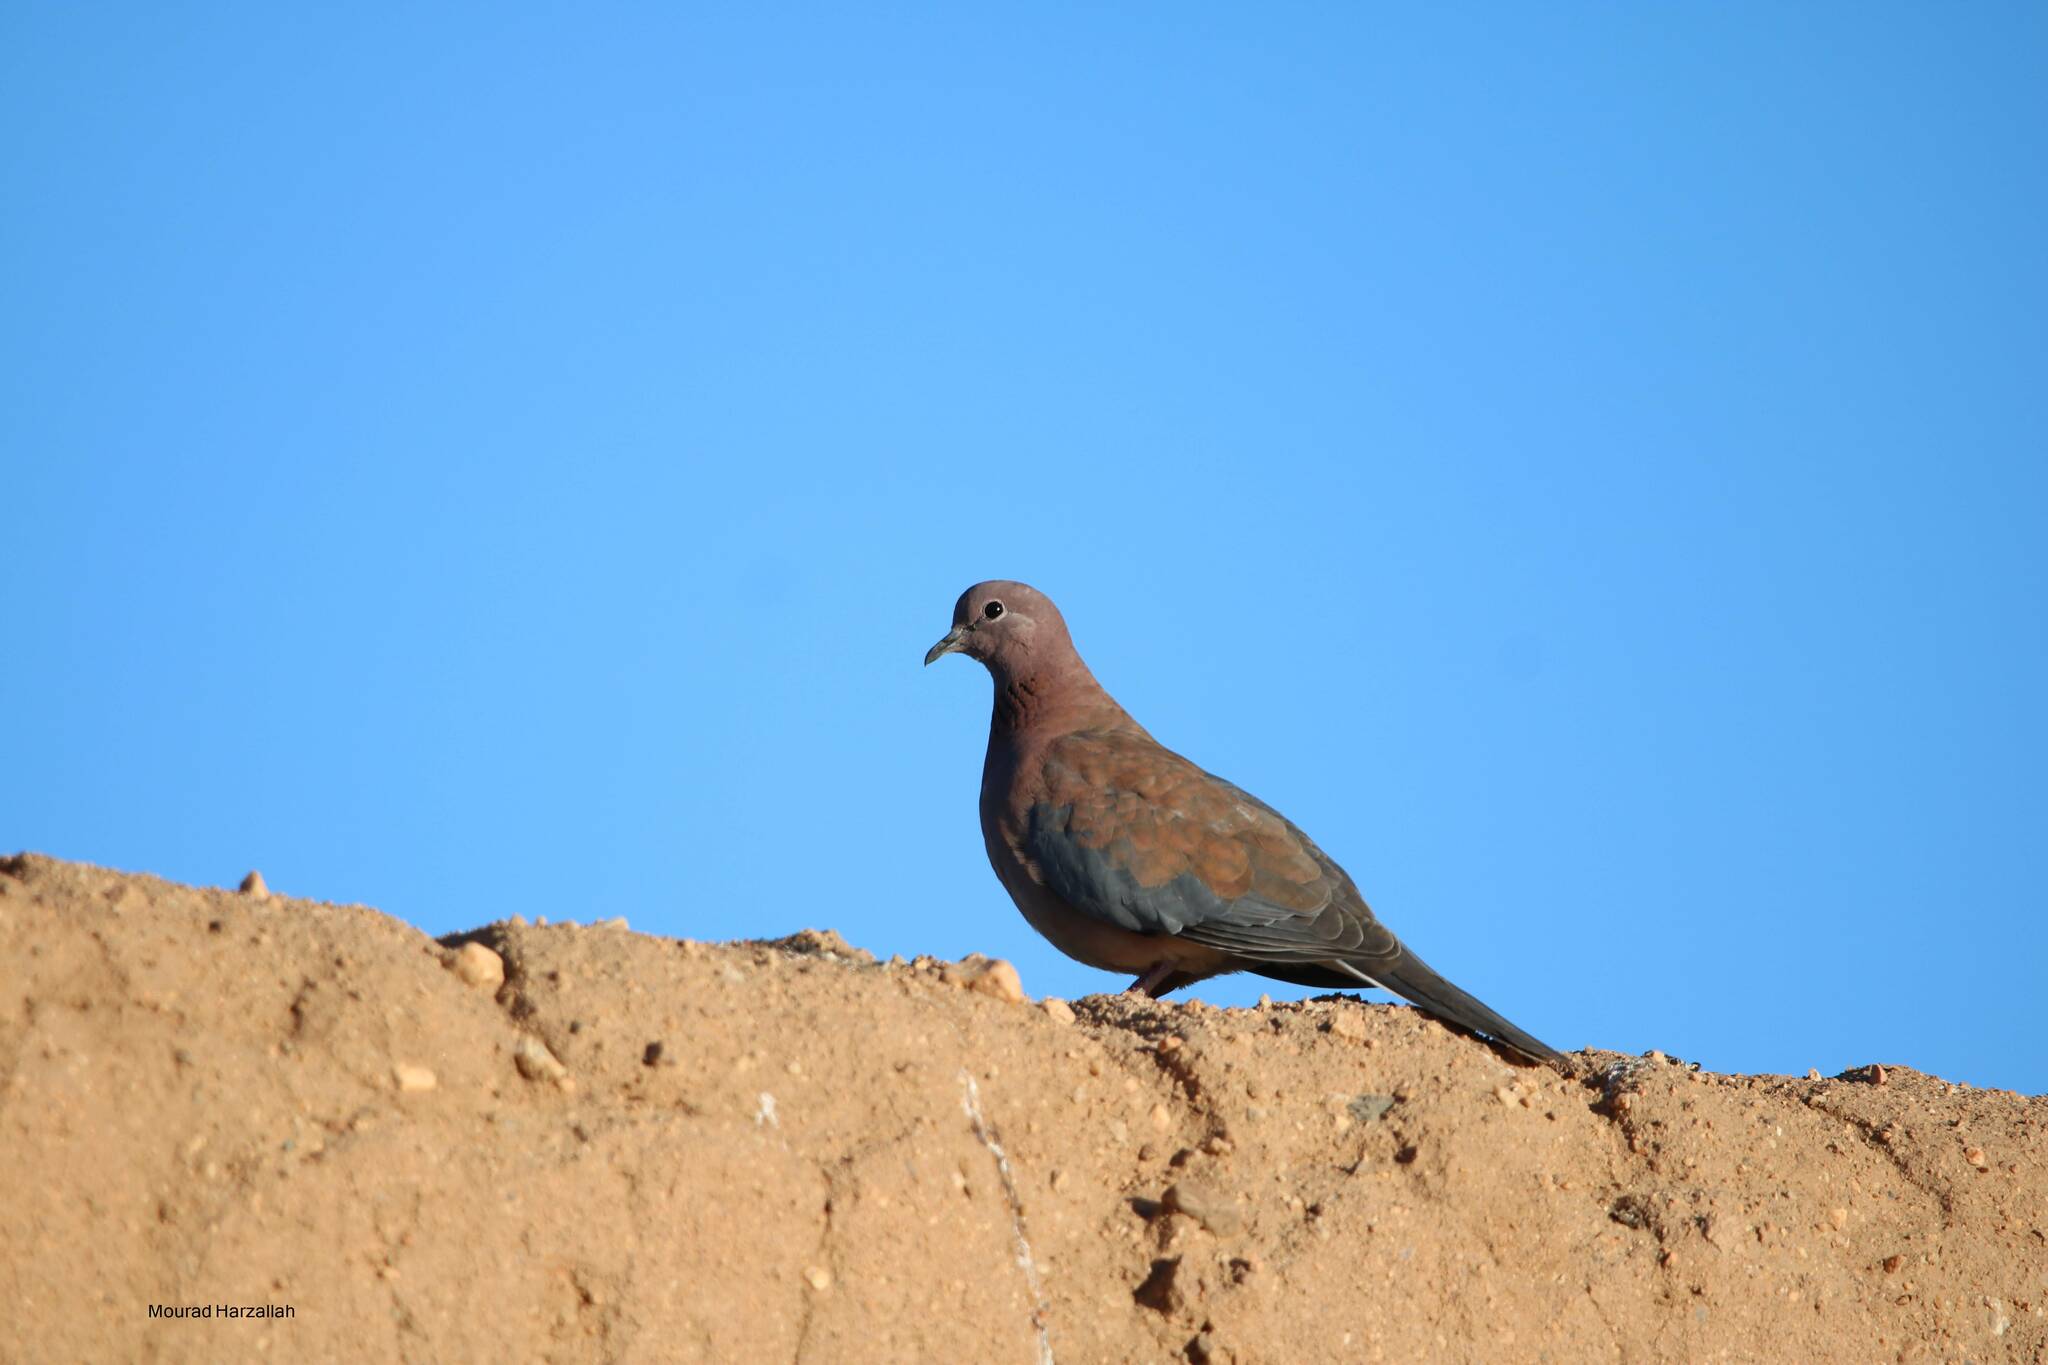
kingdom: Animalia
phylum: Chordata
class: Aves
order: Columbiformes
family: Columbidae
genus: Spilopelia
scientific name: Spilopelia senegalensis
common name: Laughing dove
